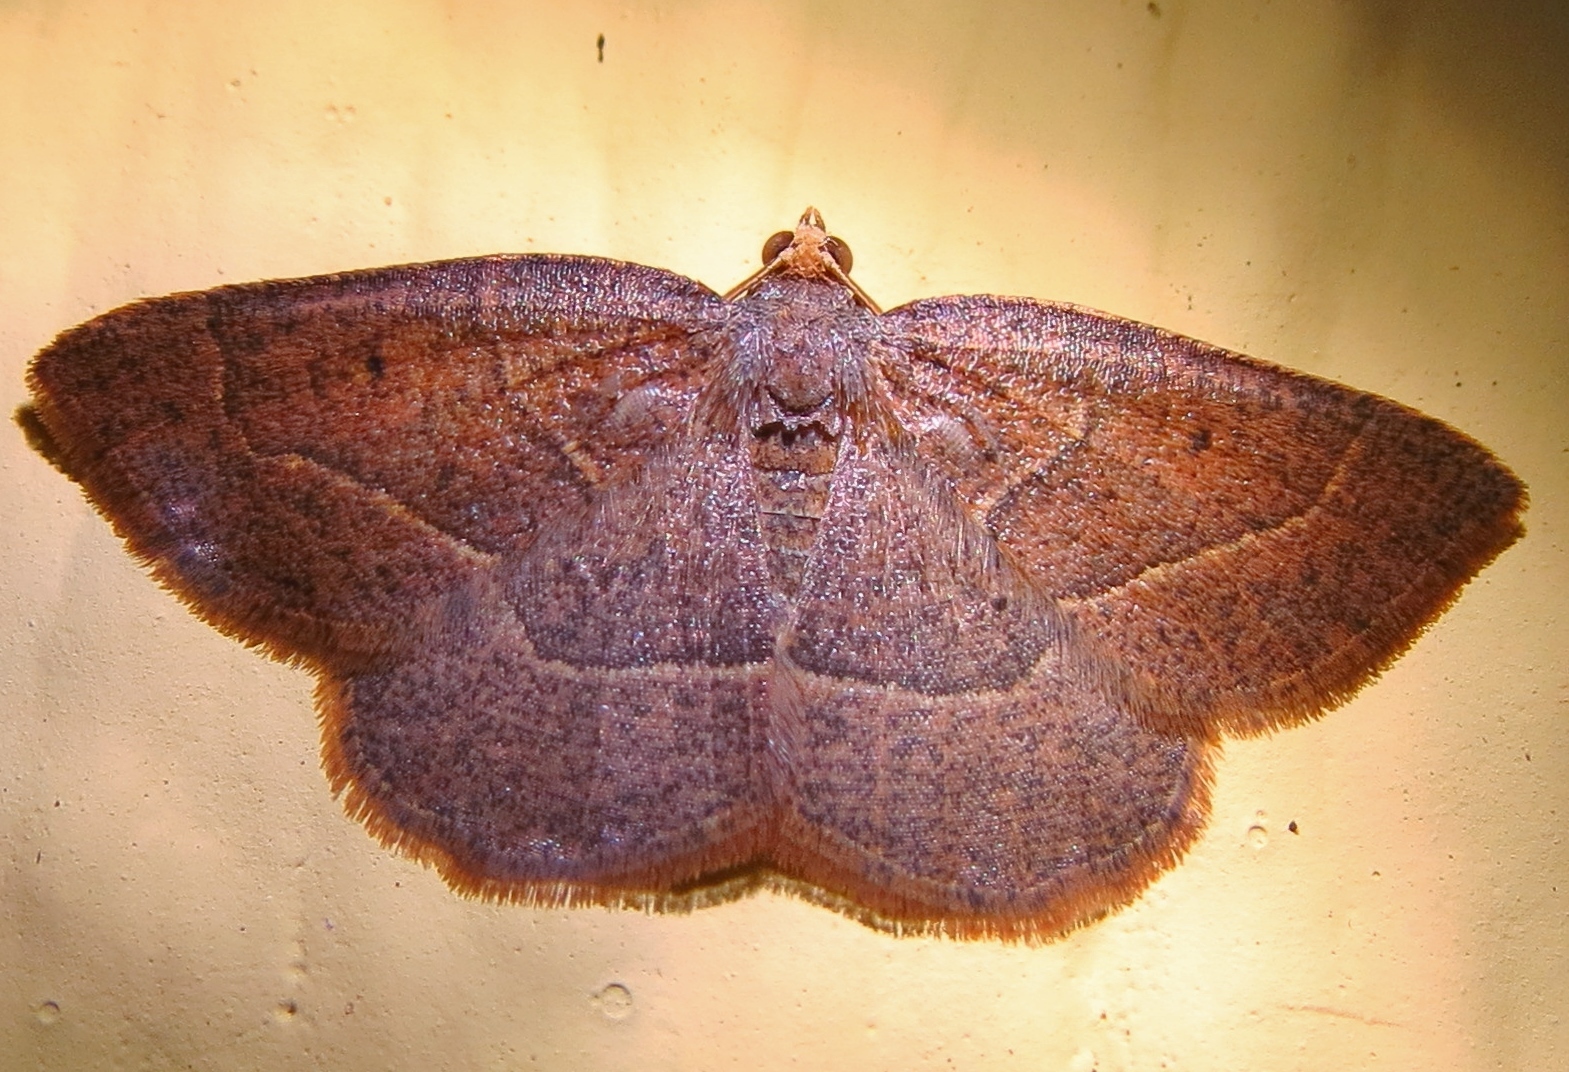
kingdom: Animalia
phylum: Arthropoda
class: Insecta
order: Lepidoptera
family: Geometridae
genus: Episemasia
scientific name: Episemasia cervinaria
